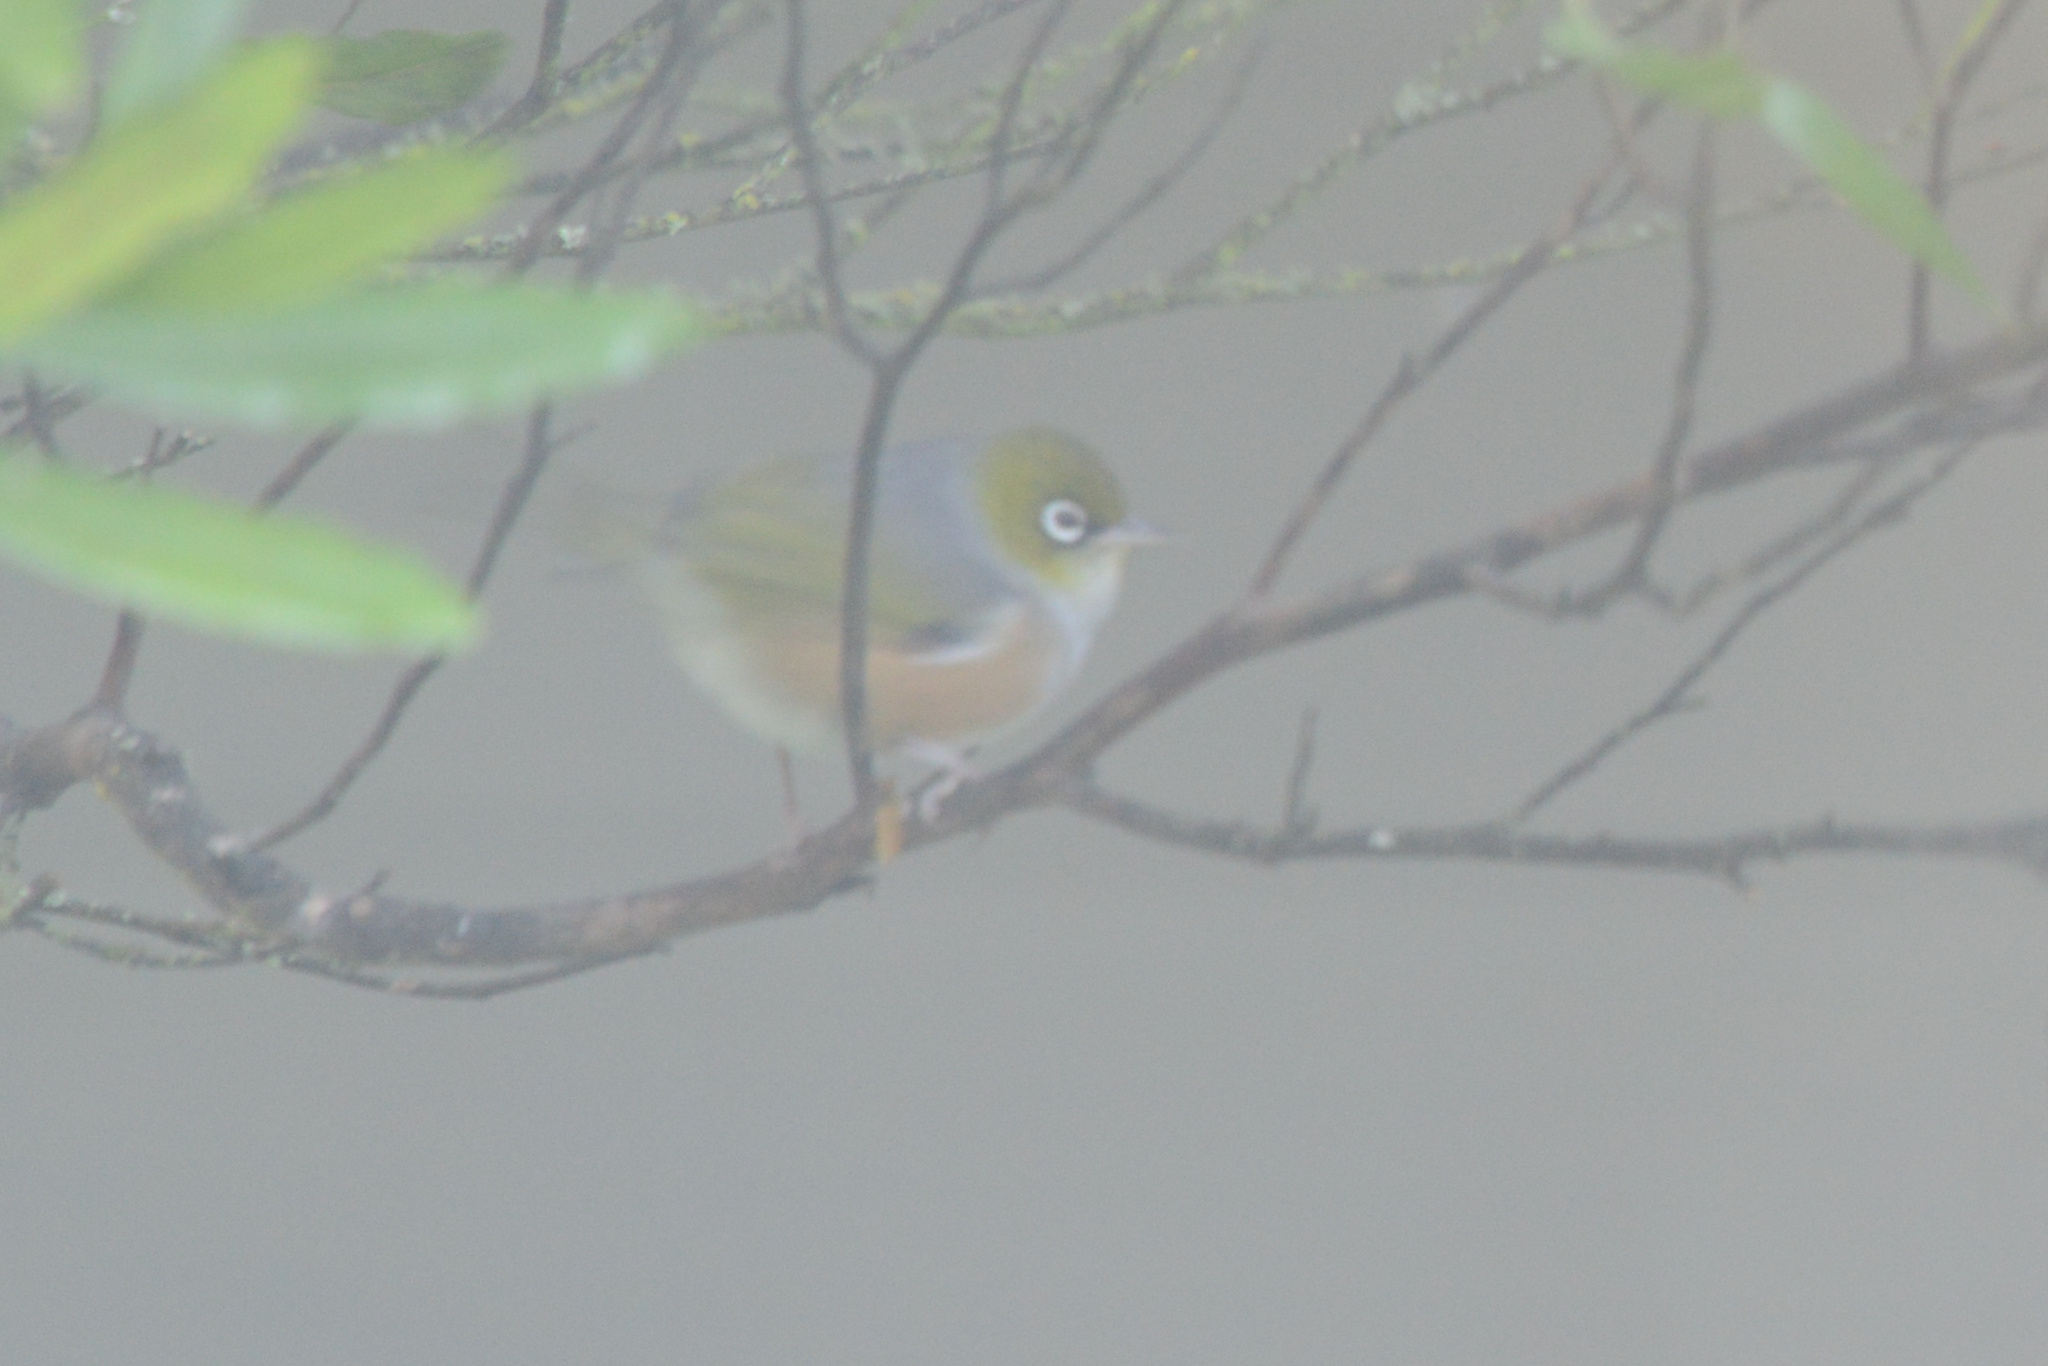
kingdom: Animalia
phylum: Chordata
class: Aves
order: Passeriformes
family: Zosteropidae
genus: Zosterops
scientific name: Zosterops lateralis
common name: Silvereye
